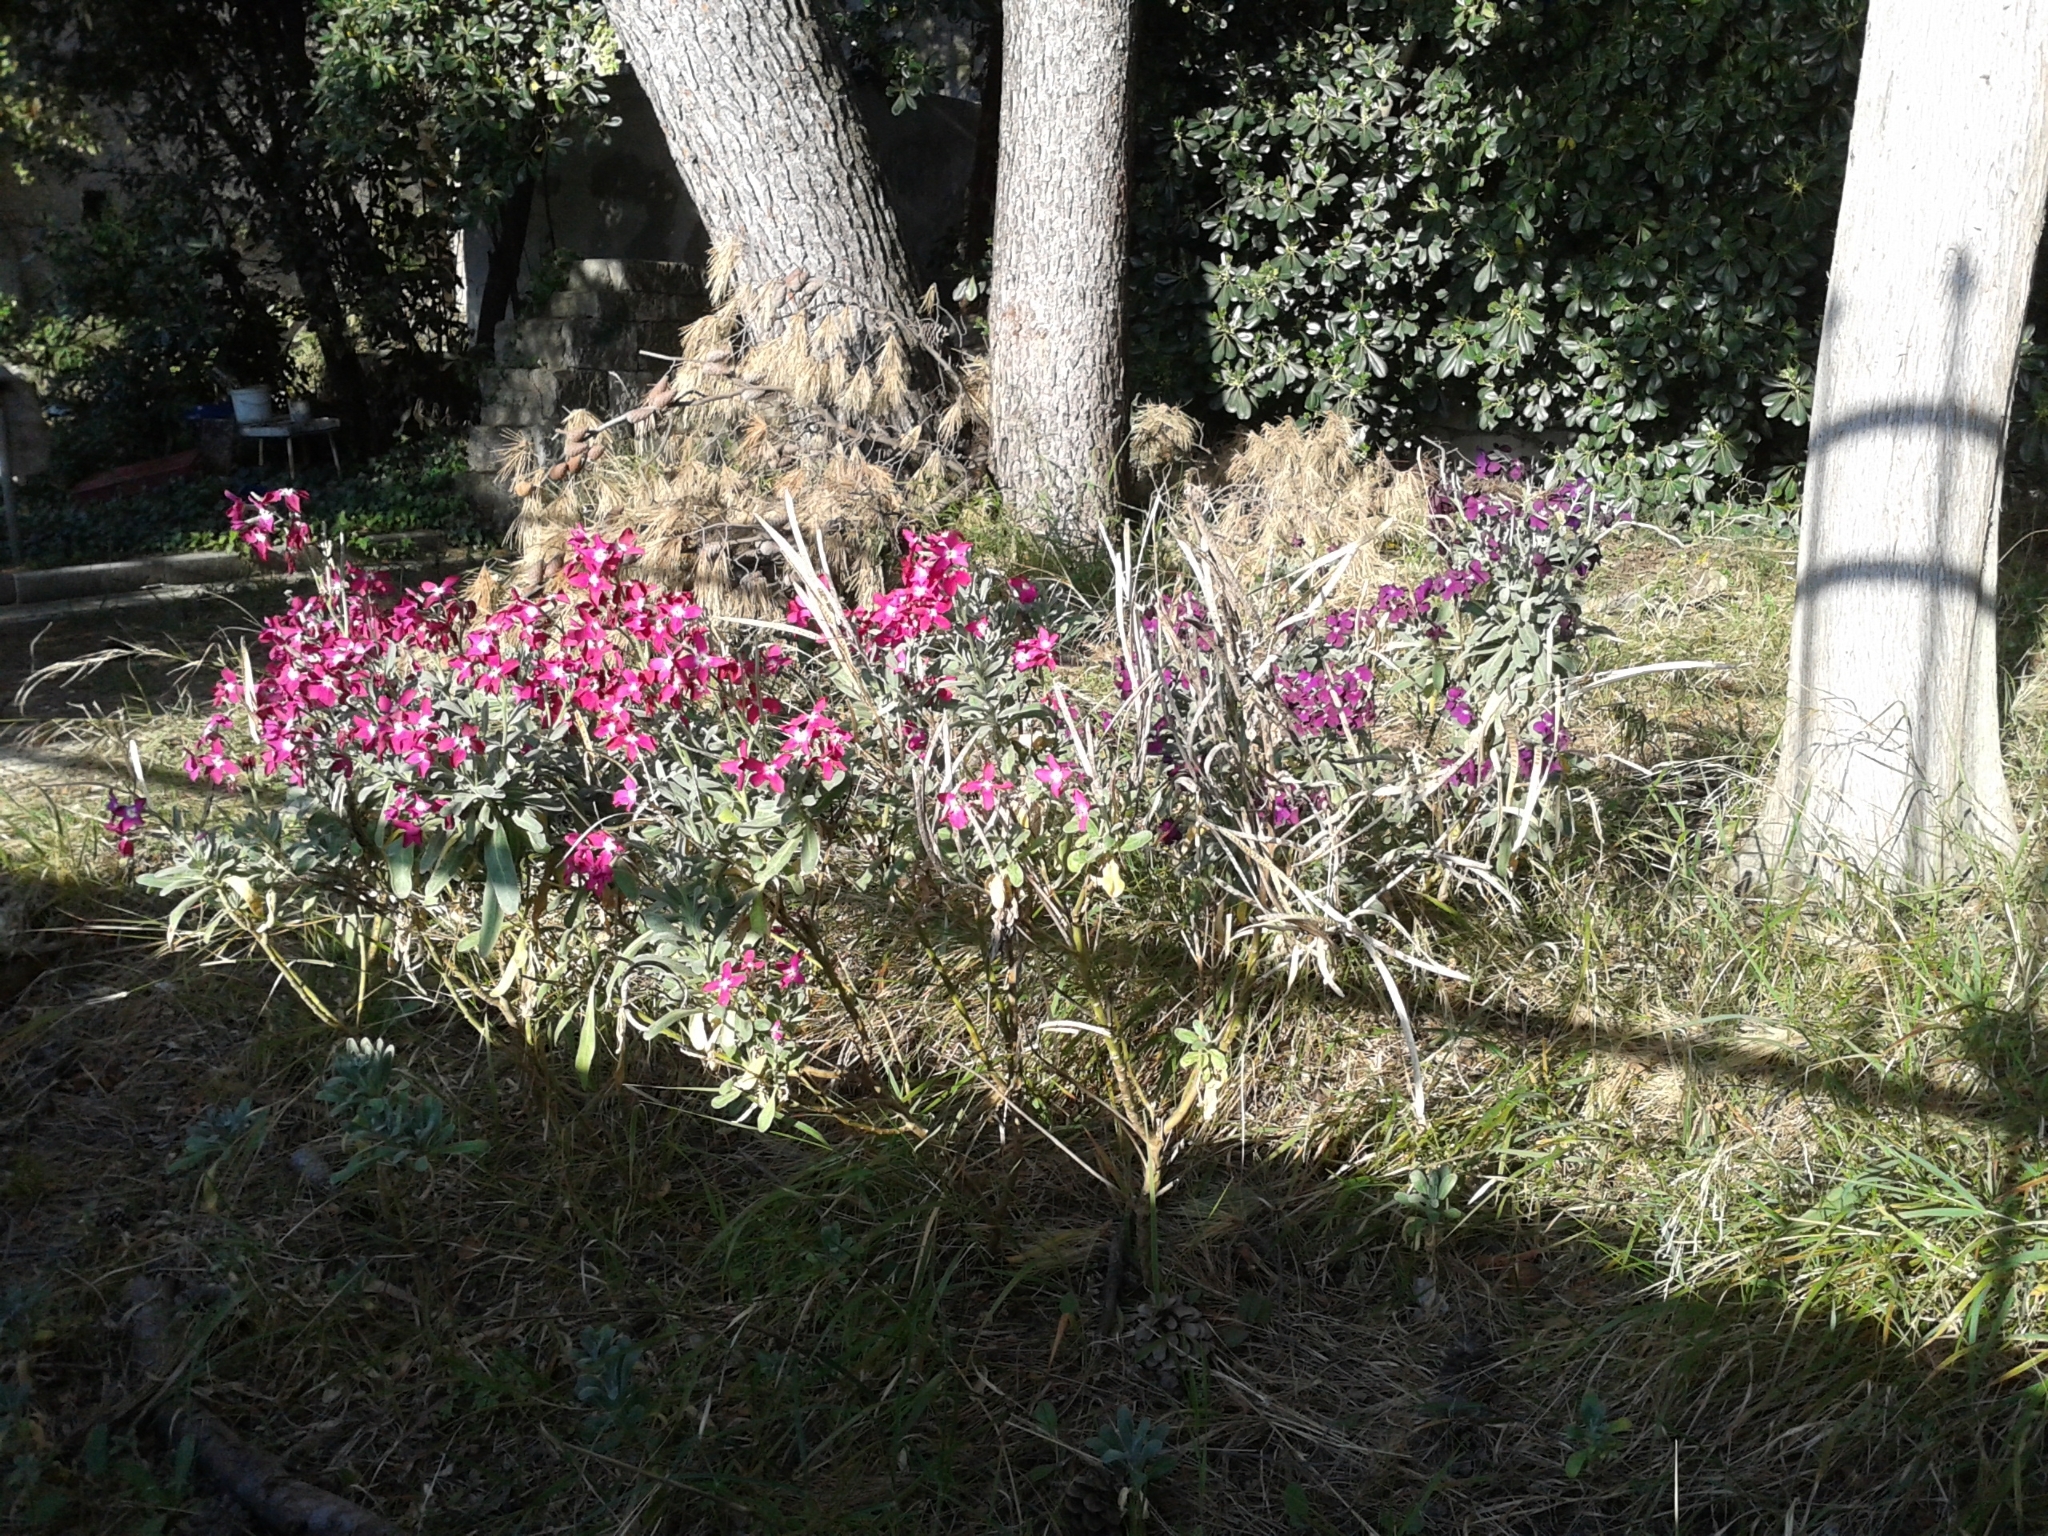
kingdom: Plantae
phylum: Tracheophyta
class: Magnoliopsida
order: Brassicales
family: Brassicaceae
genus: Matthiola
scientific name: Matthiola incana
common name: Hoary stock
